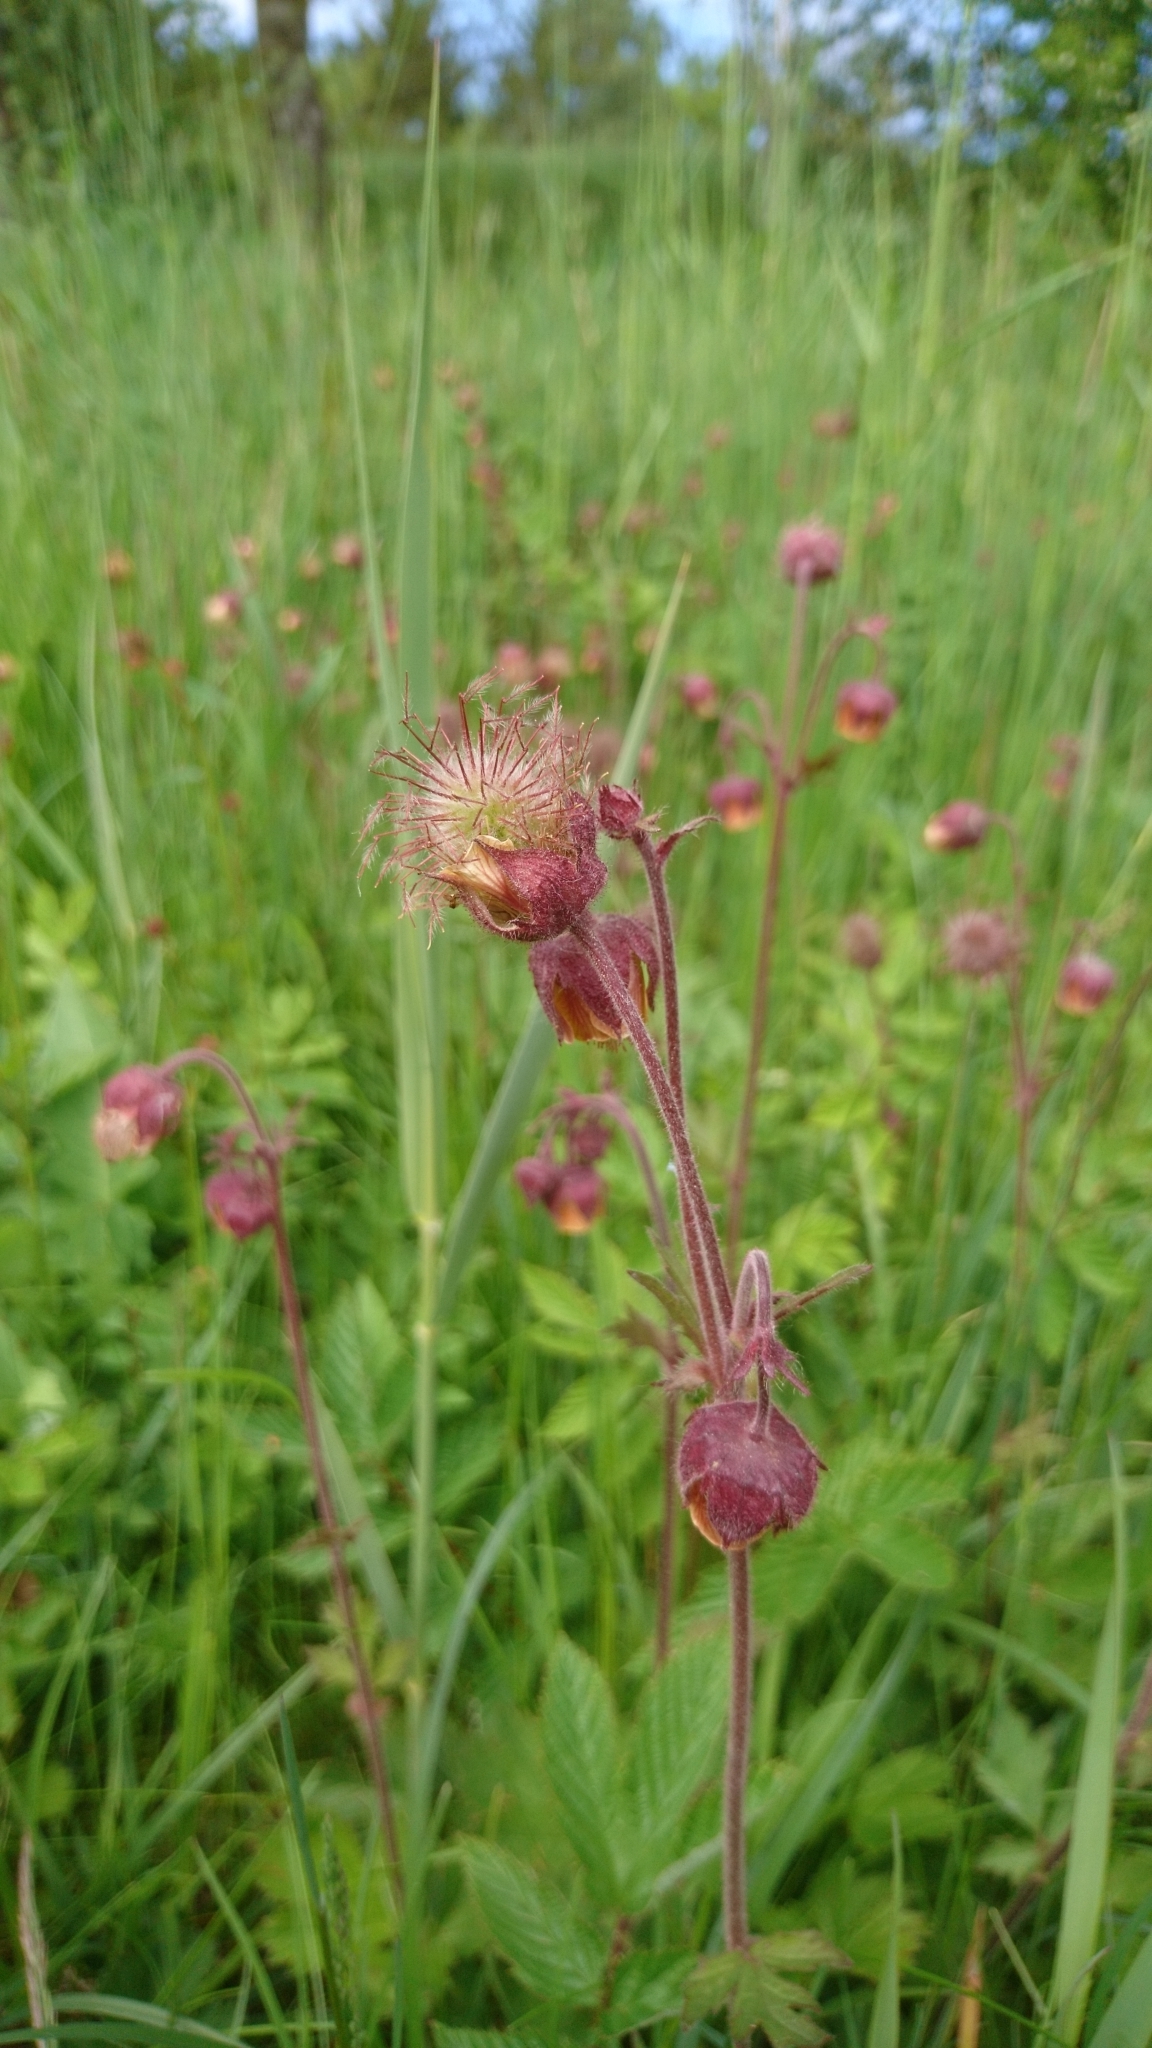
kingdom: Plantae
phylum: Tracheophyta
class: Magnoliopsida
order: Rosales
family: Rosaceae
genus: Geum
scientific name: Geum rivale
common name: Water avens
